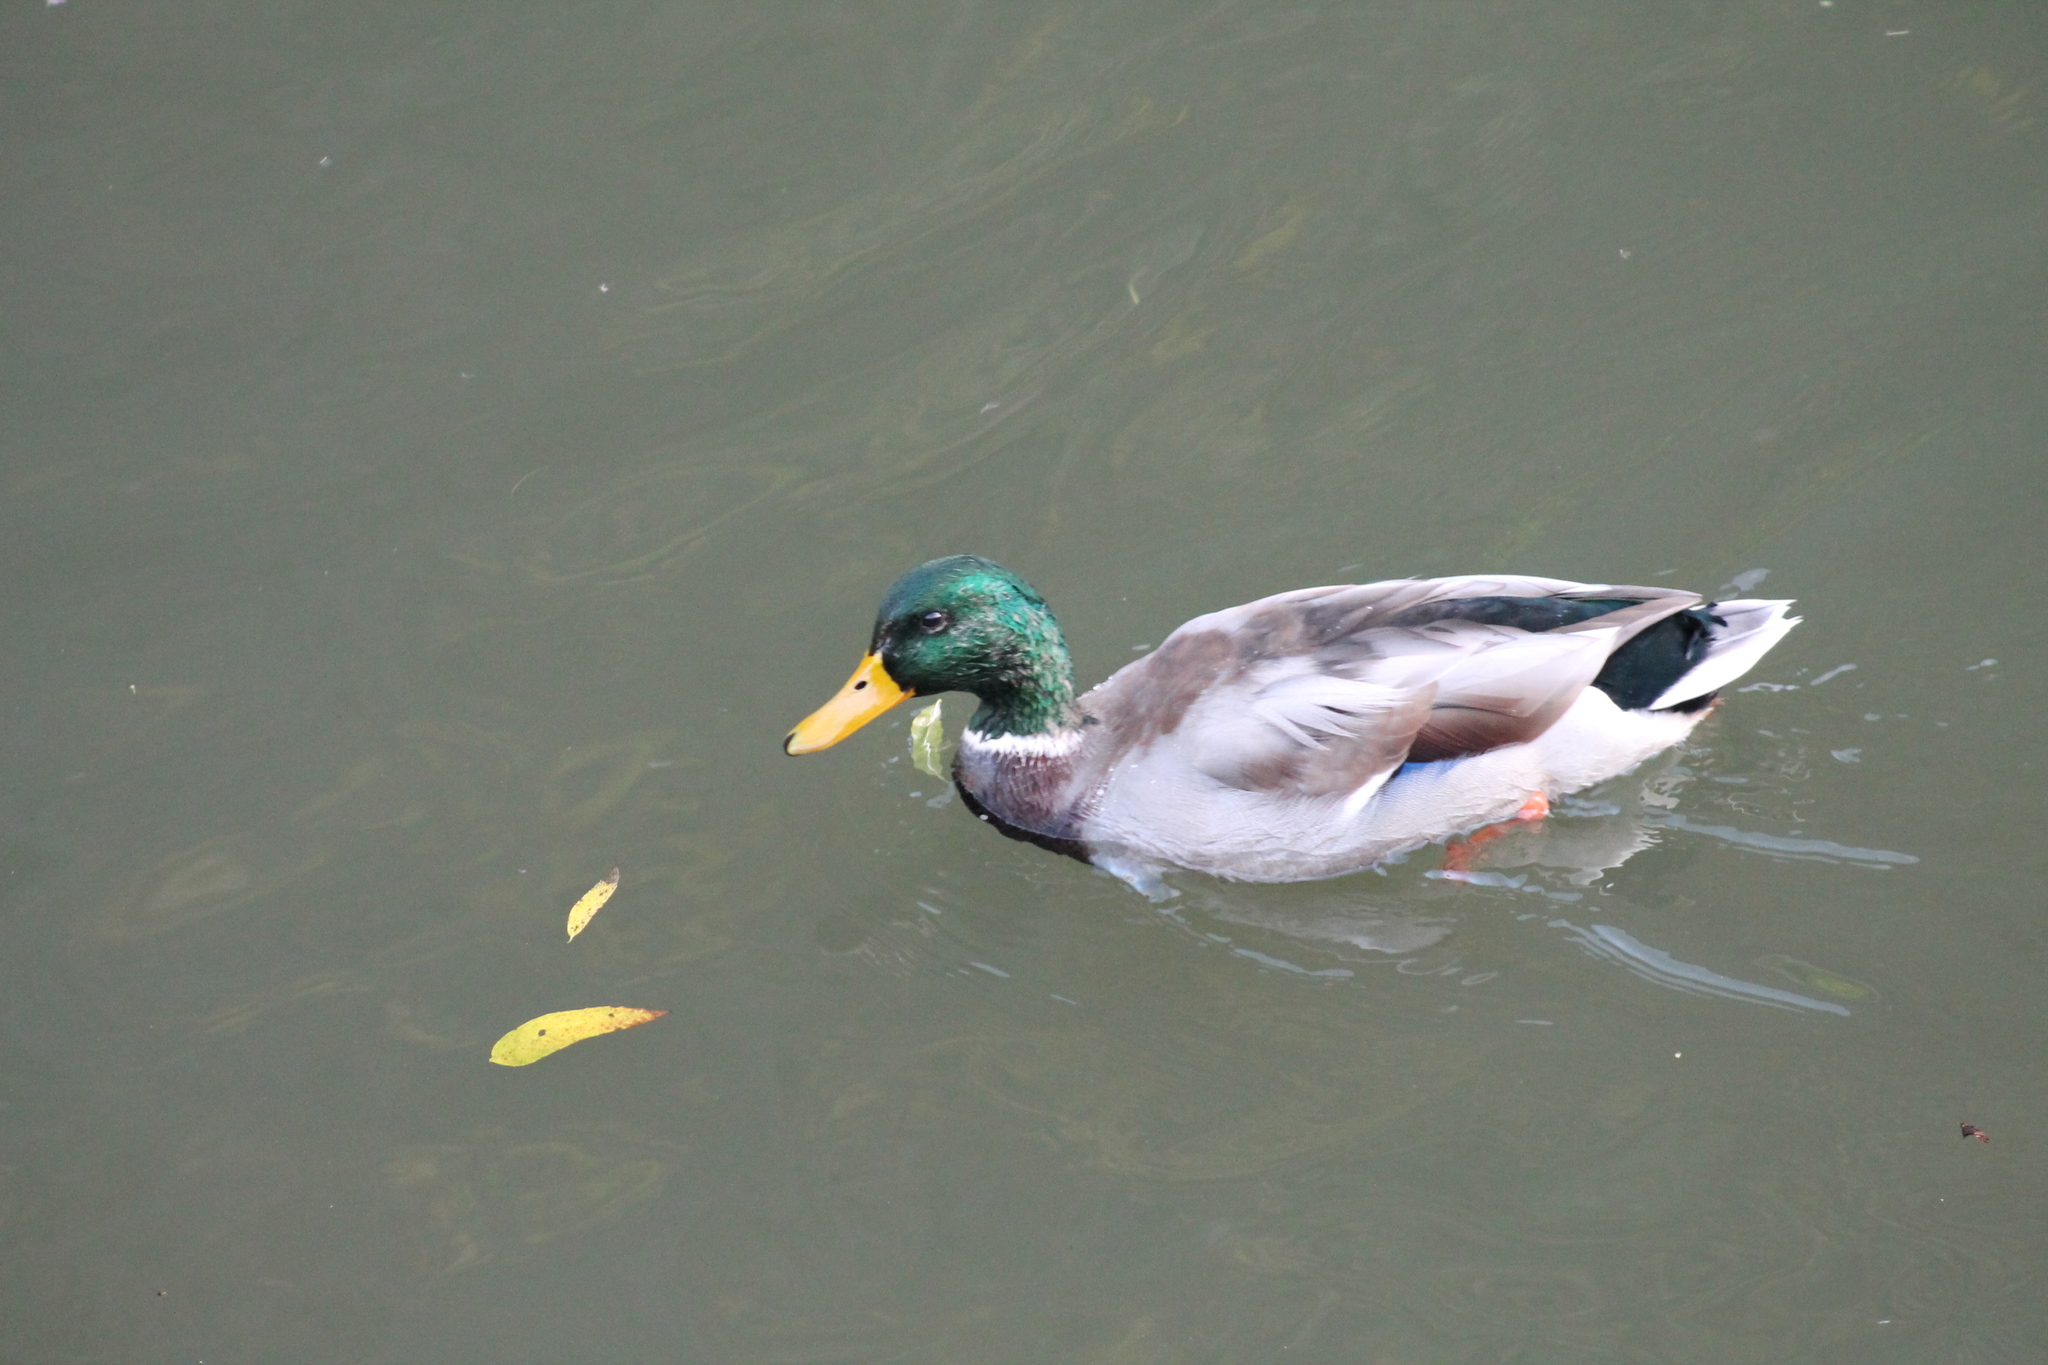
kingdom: Animalia
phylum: Chordata
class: Aves
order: Anseriformes
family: Anatidae
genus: Anas
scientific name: Anas platyrhynchos
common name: Mallard
